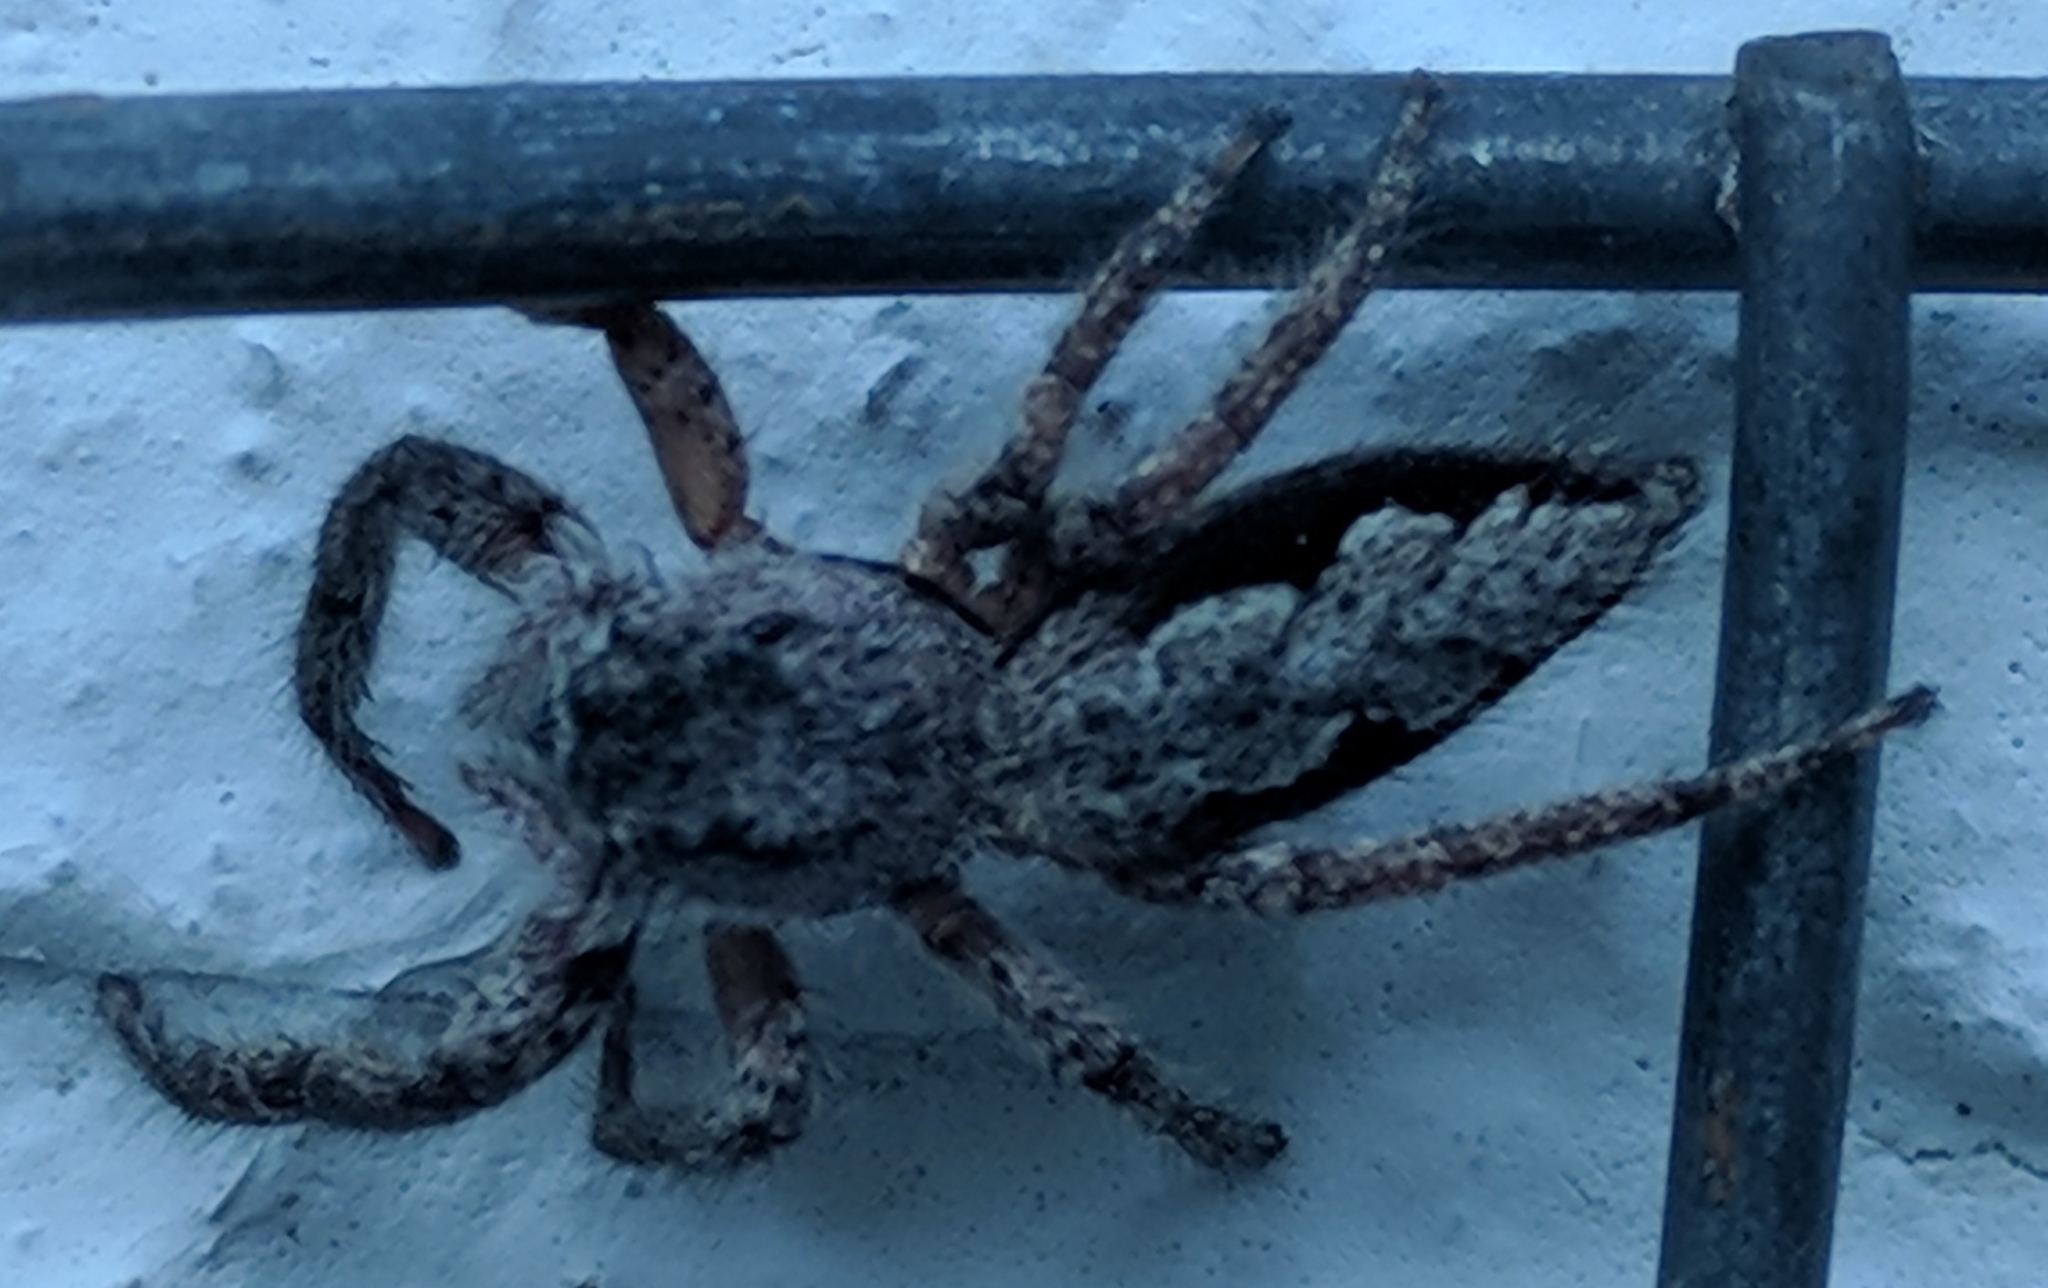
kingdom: Animalia
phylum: Arthropoda
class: Arachnida
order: Araneae
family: Salticidae
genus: Platycryptus
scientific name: Platycryptus undatus
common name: Tan jumping spider
